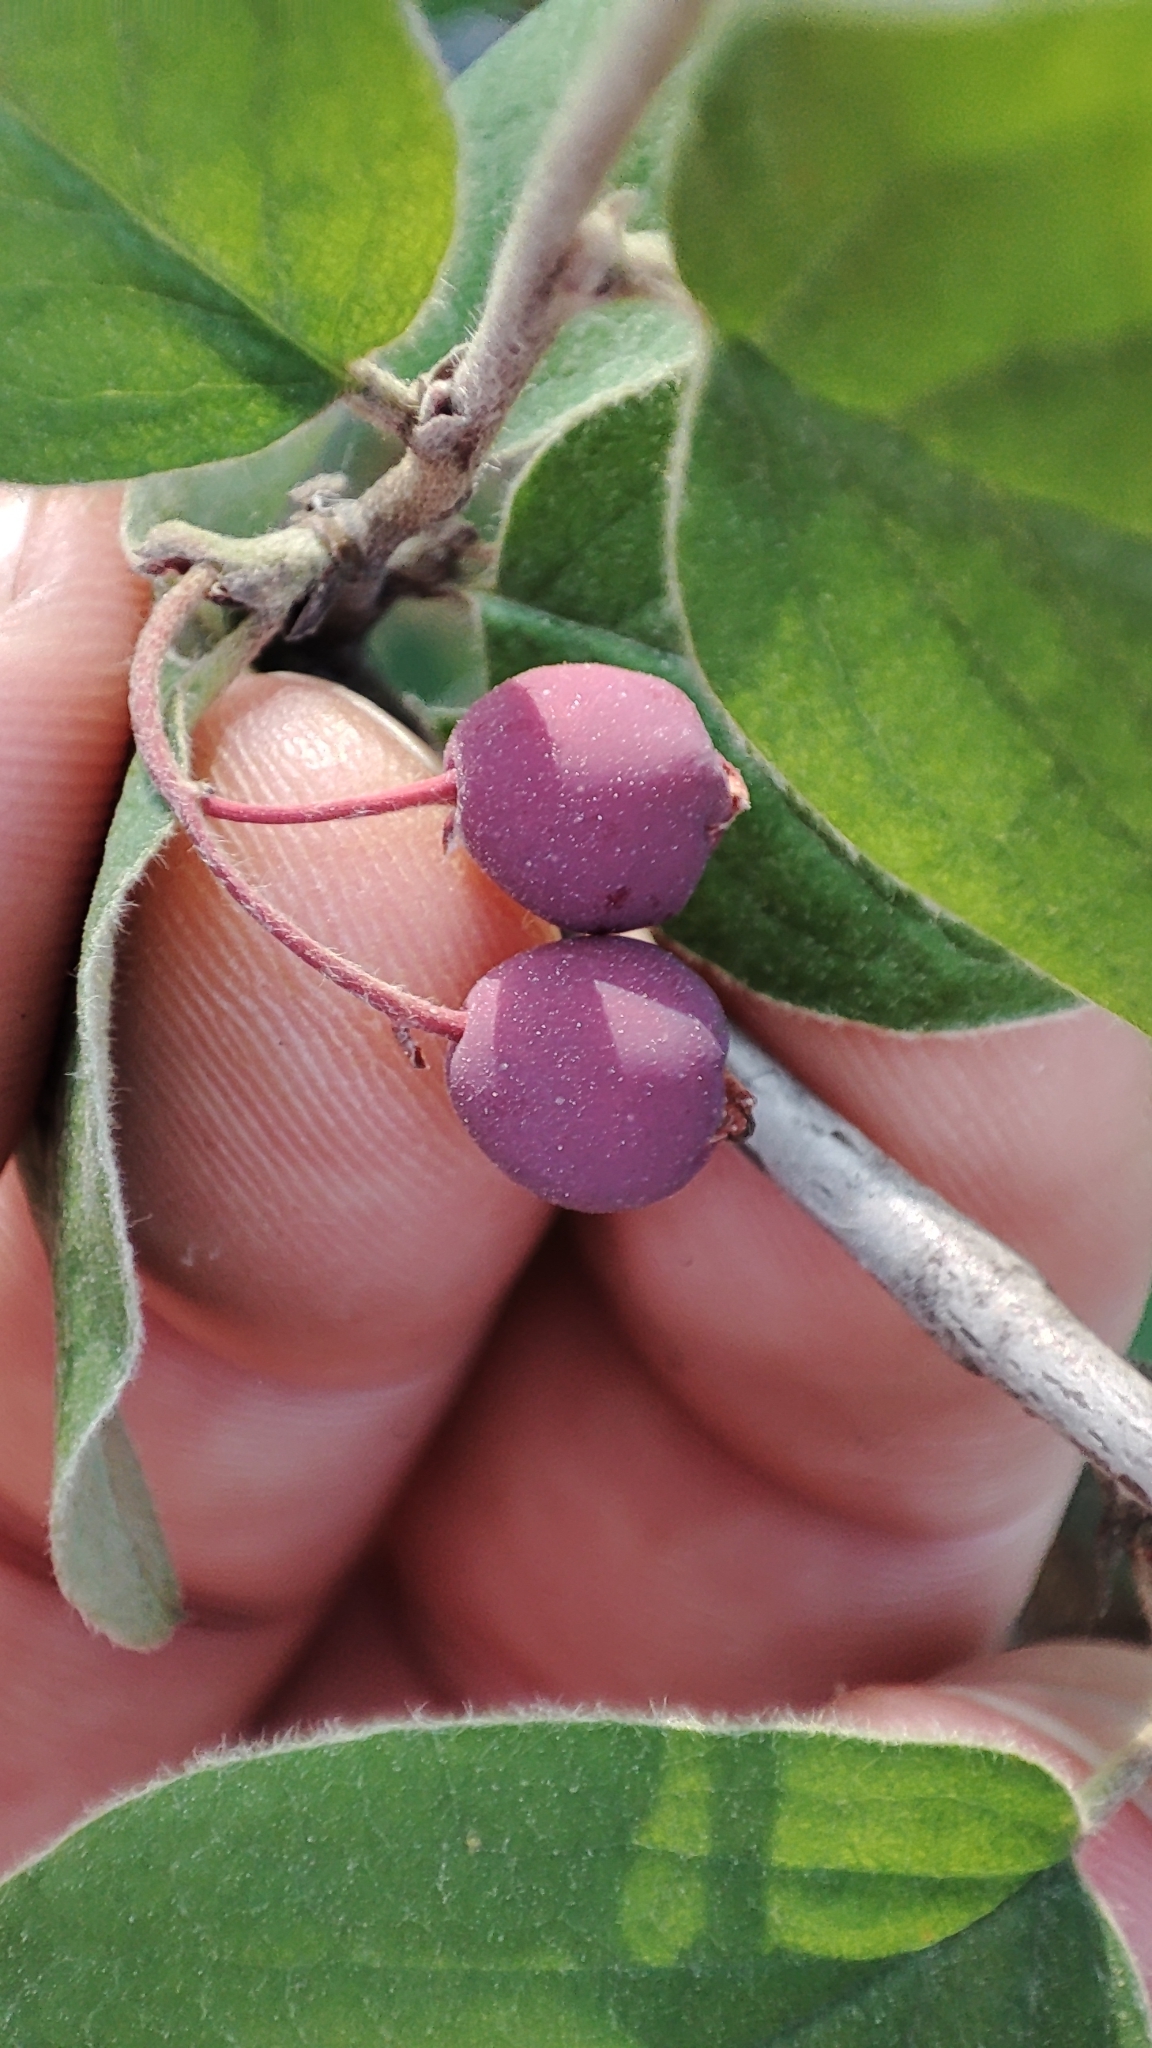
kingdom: Plantae
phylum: Tracheophyta
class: Magnoliopsida
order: Rosales
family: Rosaceae
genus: Cotoneaster
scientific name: Cotoneaster melanocarpus
